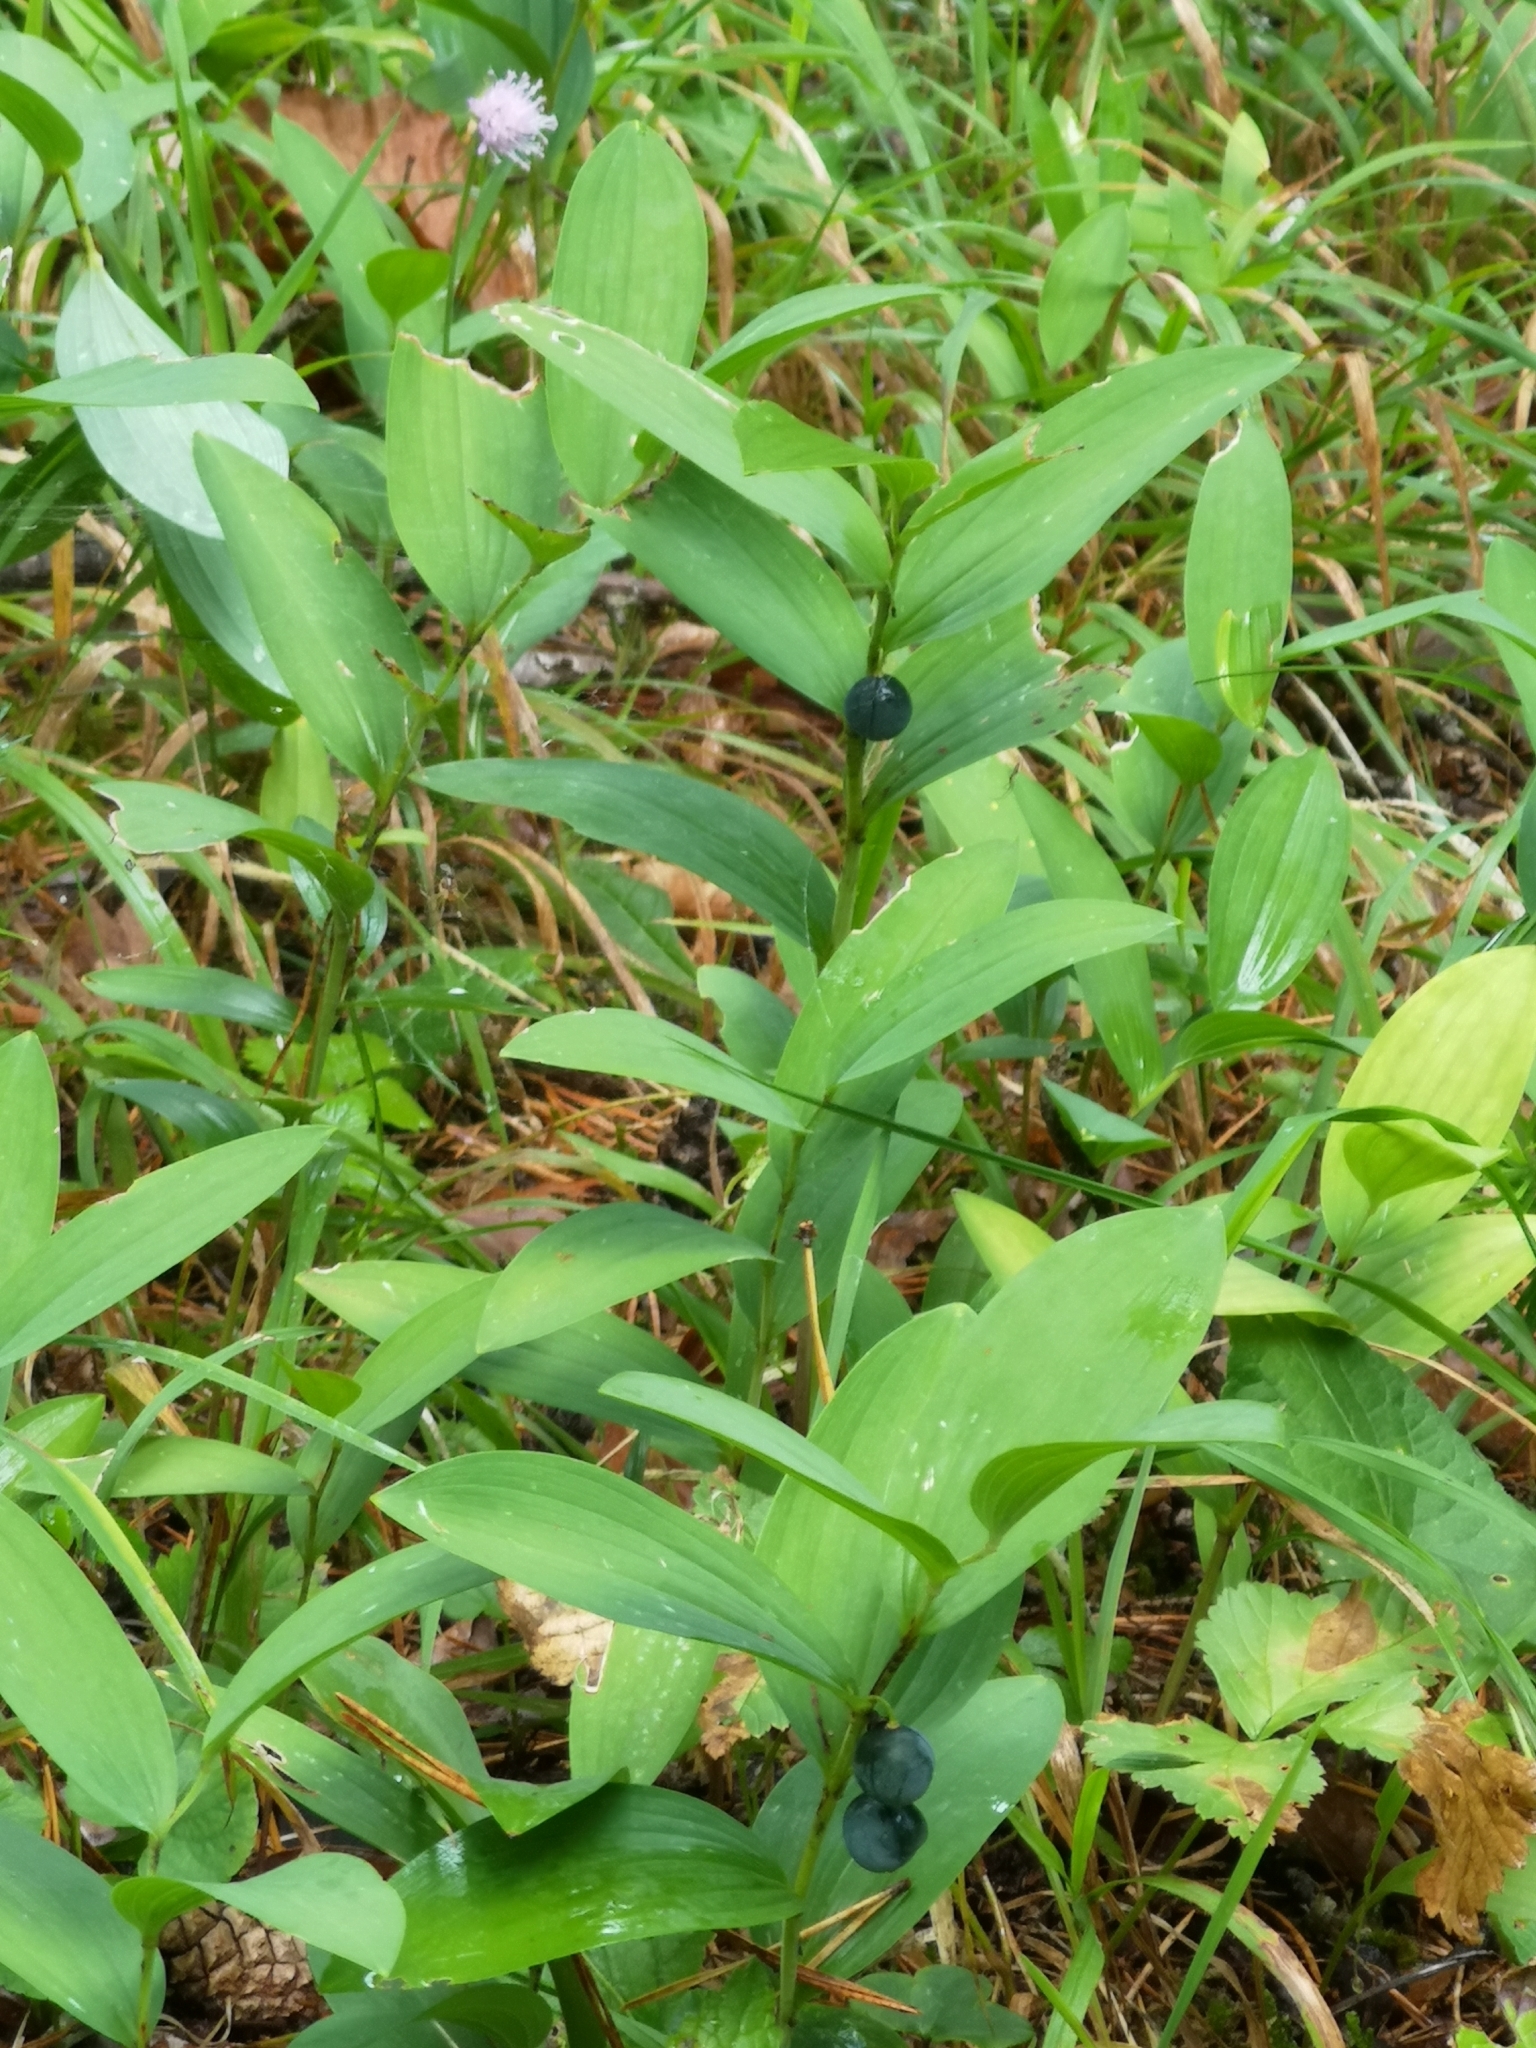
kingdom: Plantae
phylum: Tracheophyta
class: Liliopsida
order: Asparagales
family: Asparagaceae
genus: Polygonatum
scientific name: Polygonatum odoratum
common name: Angular solomon's-seal
